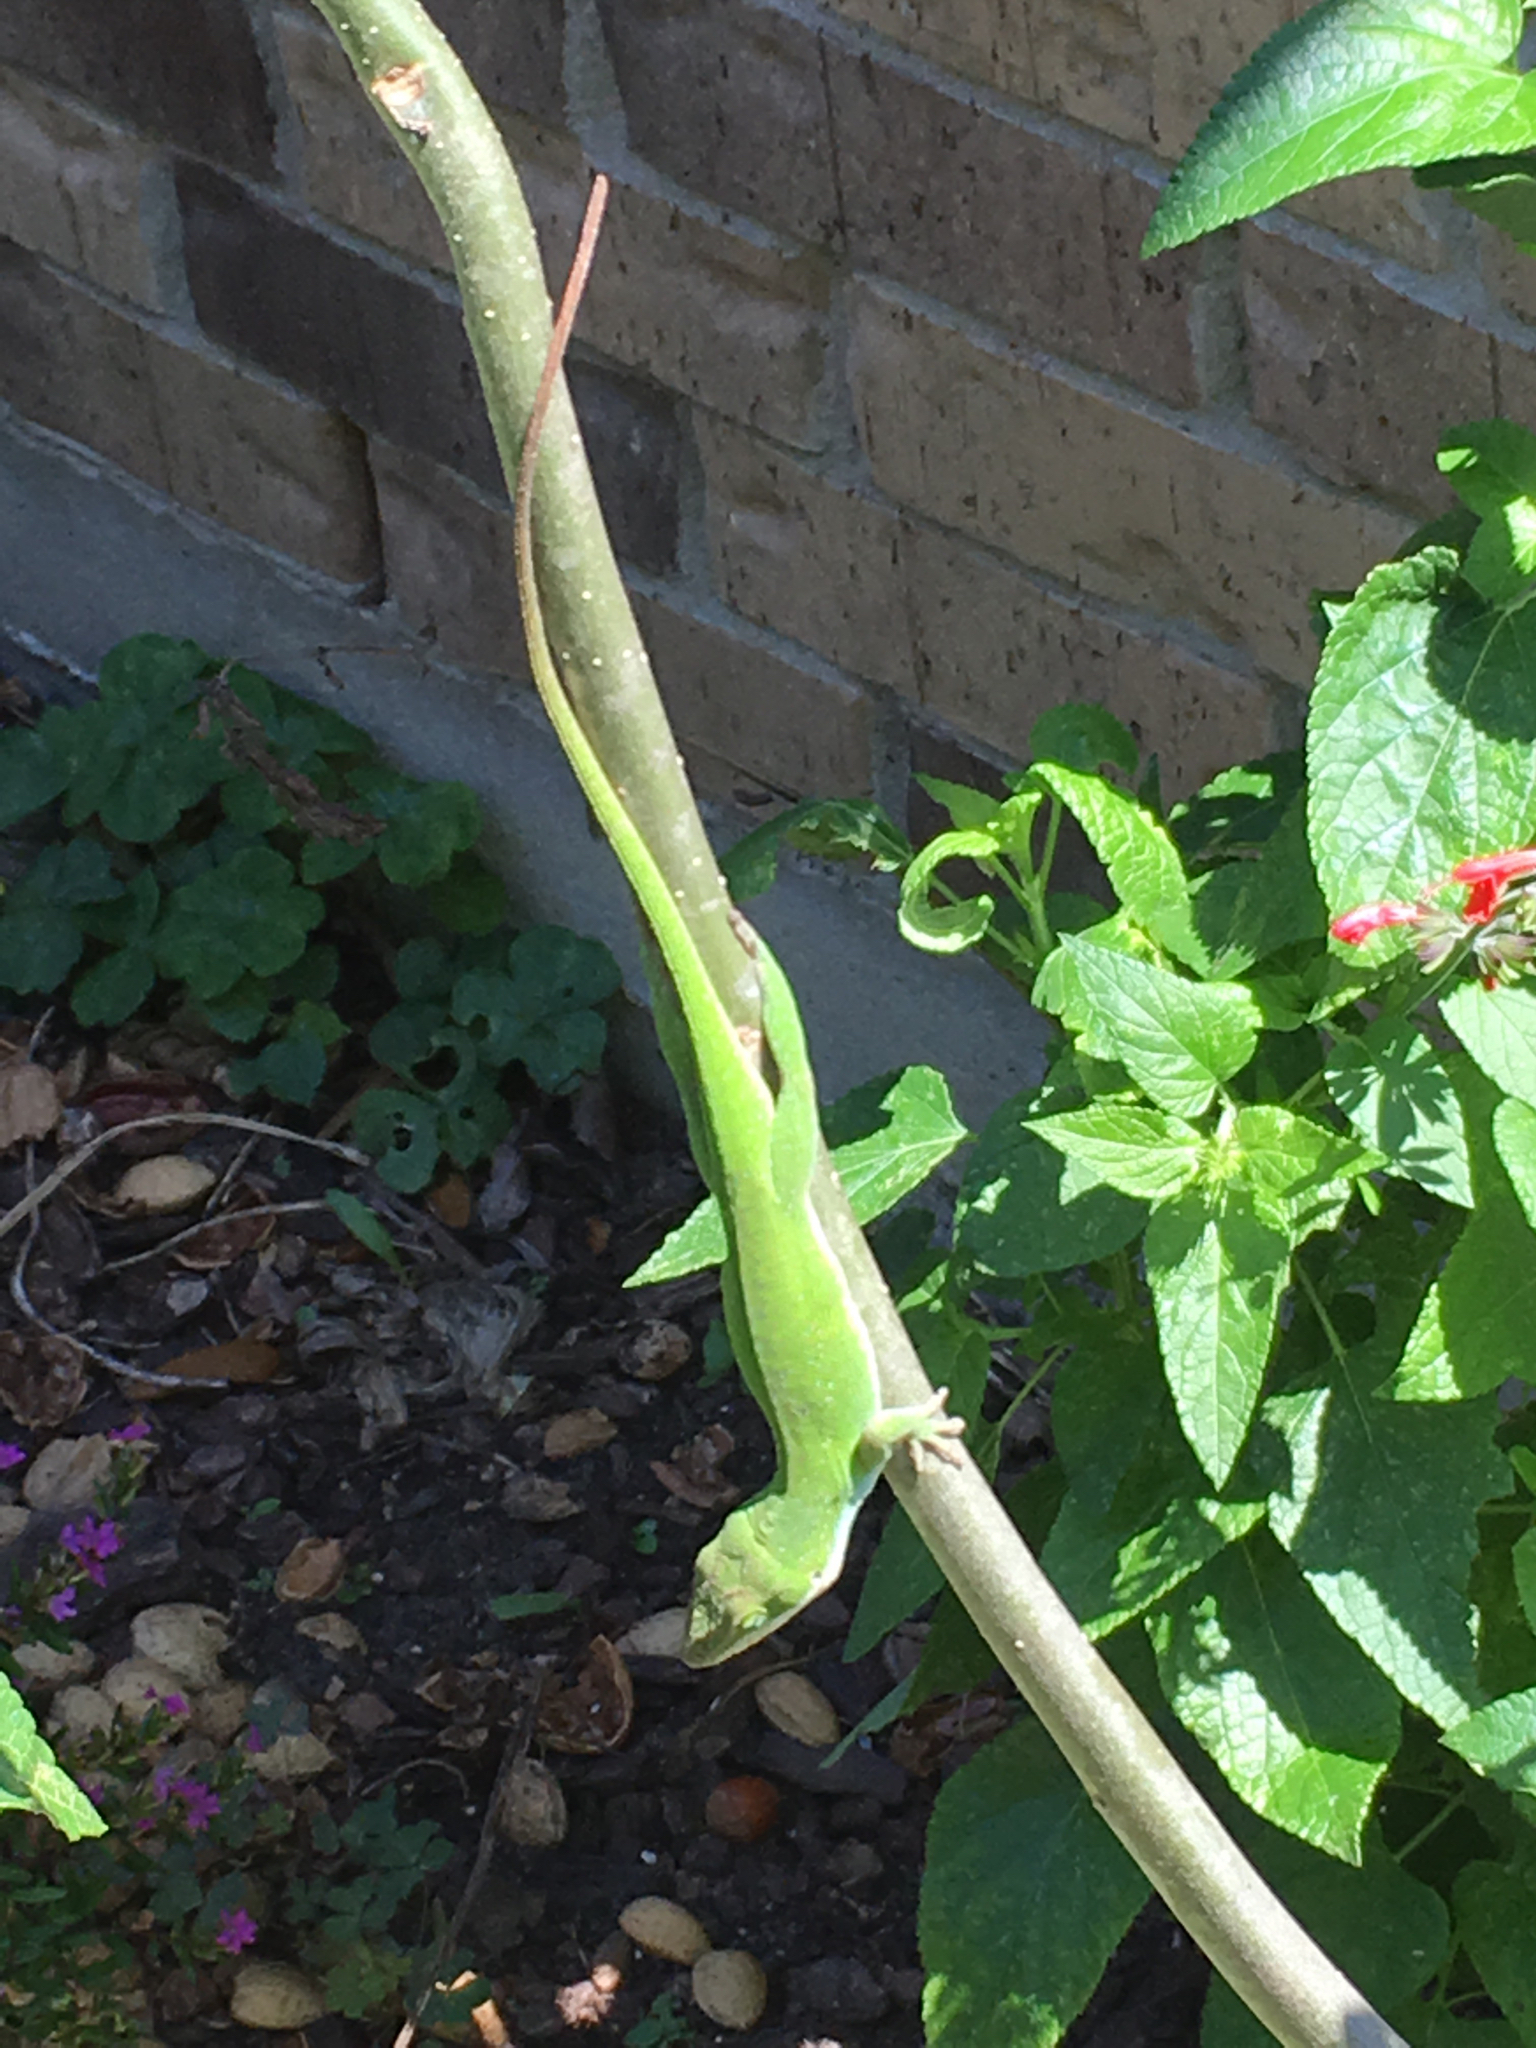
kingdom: Animalia
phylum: Chordata
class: Squamata
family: Dactyloidae
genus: Anolis
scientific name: Anolis carolinensis
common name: Green anole
